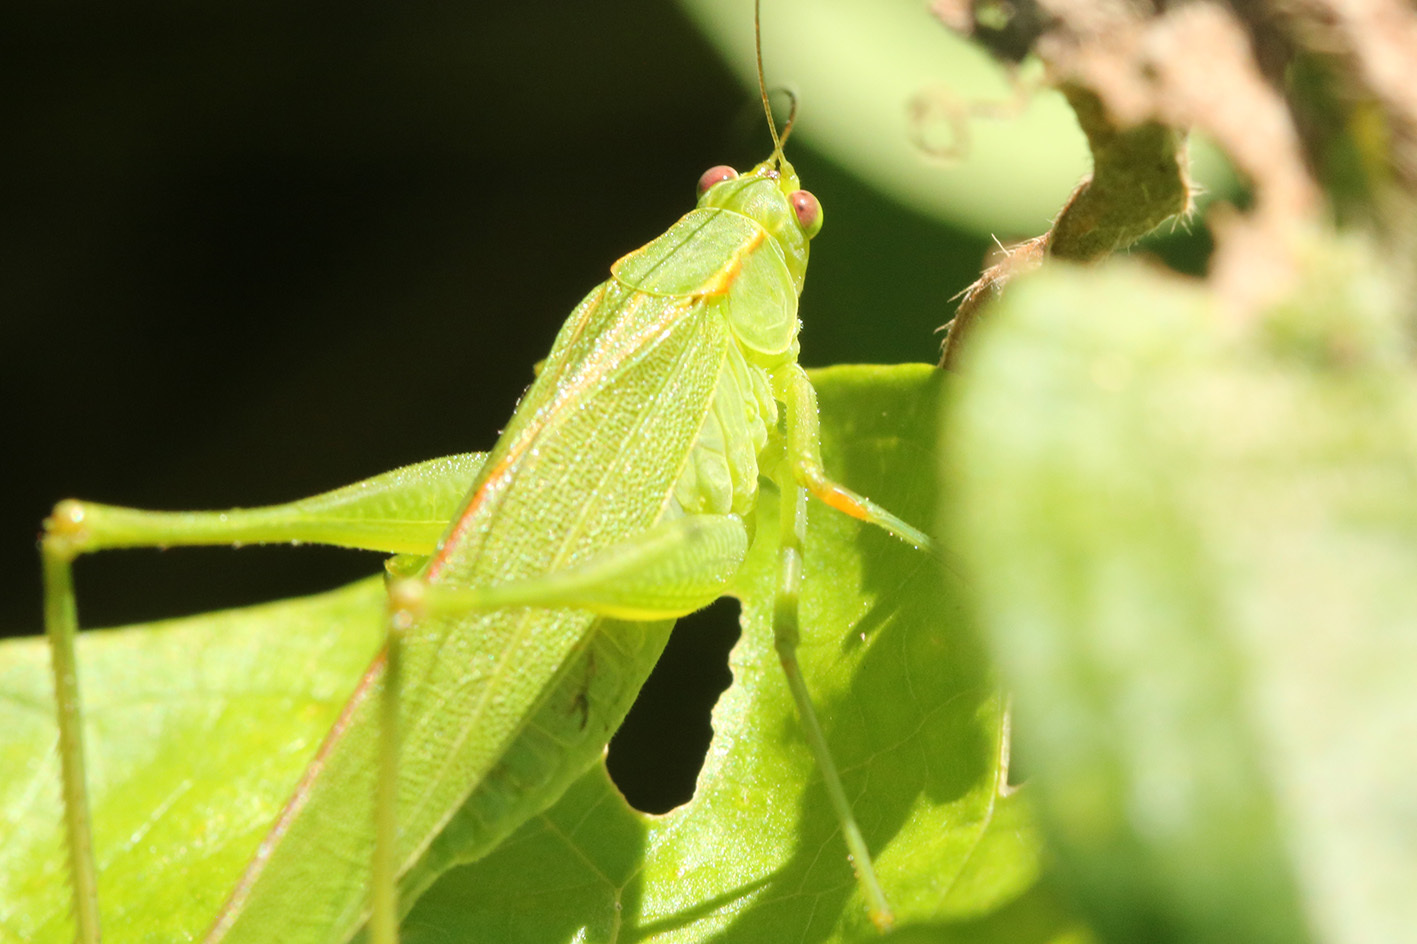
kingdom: Animalia
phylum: Arthropoda
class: Insecta
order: Orthoptera
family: Tettigoniidae
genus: Ligocatinus
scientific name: Ligocatinus spinatus
